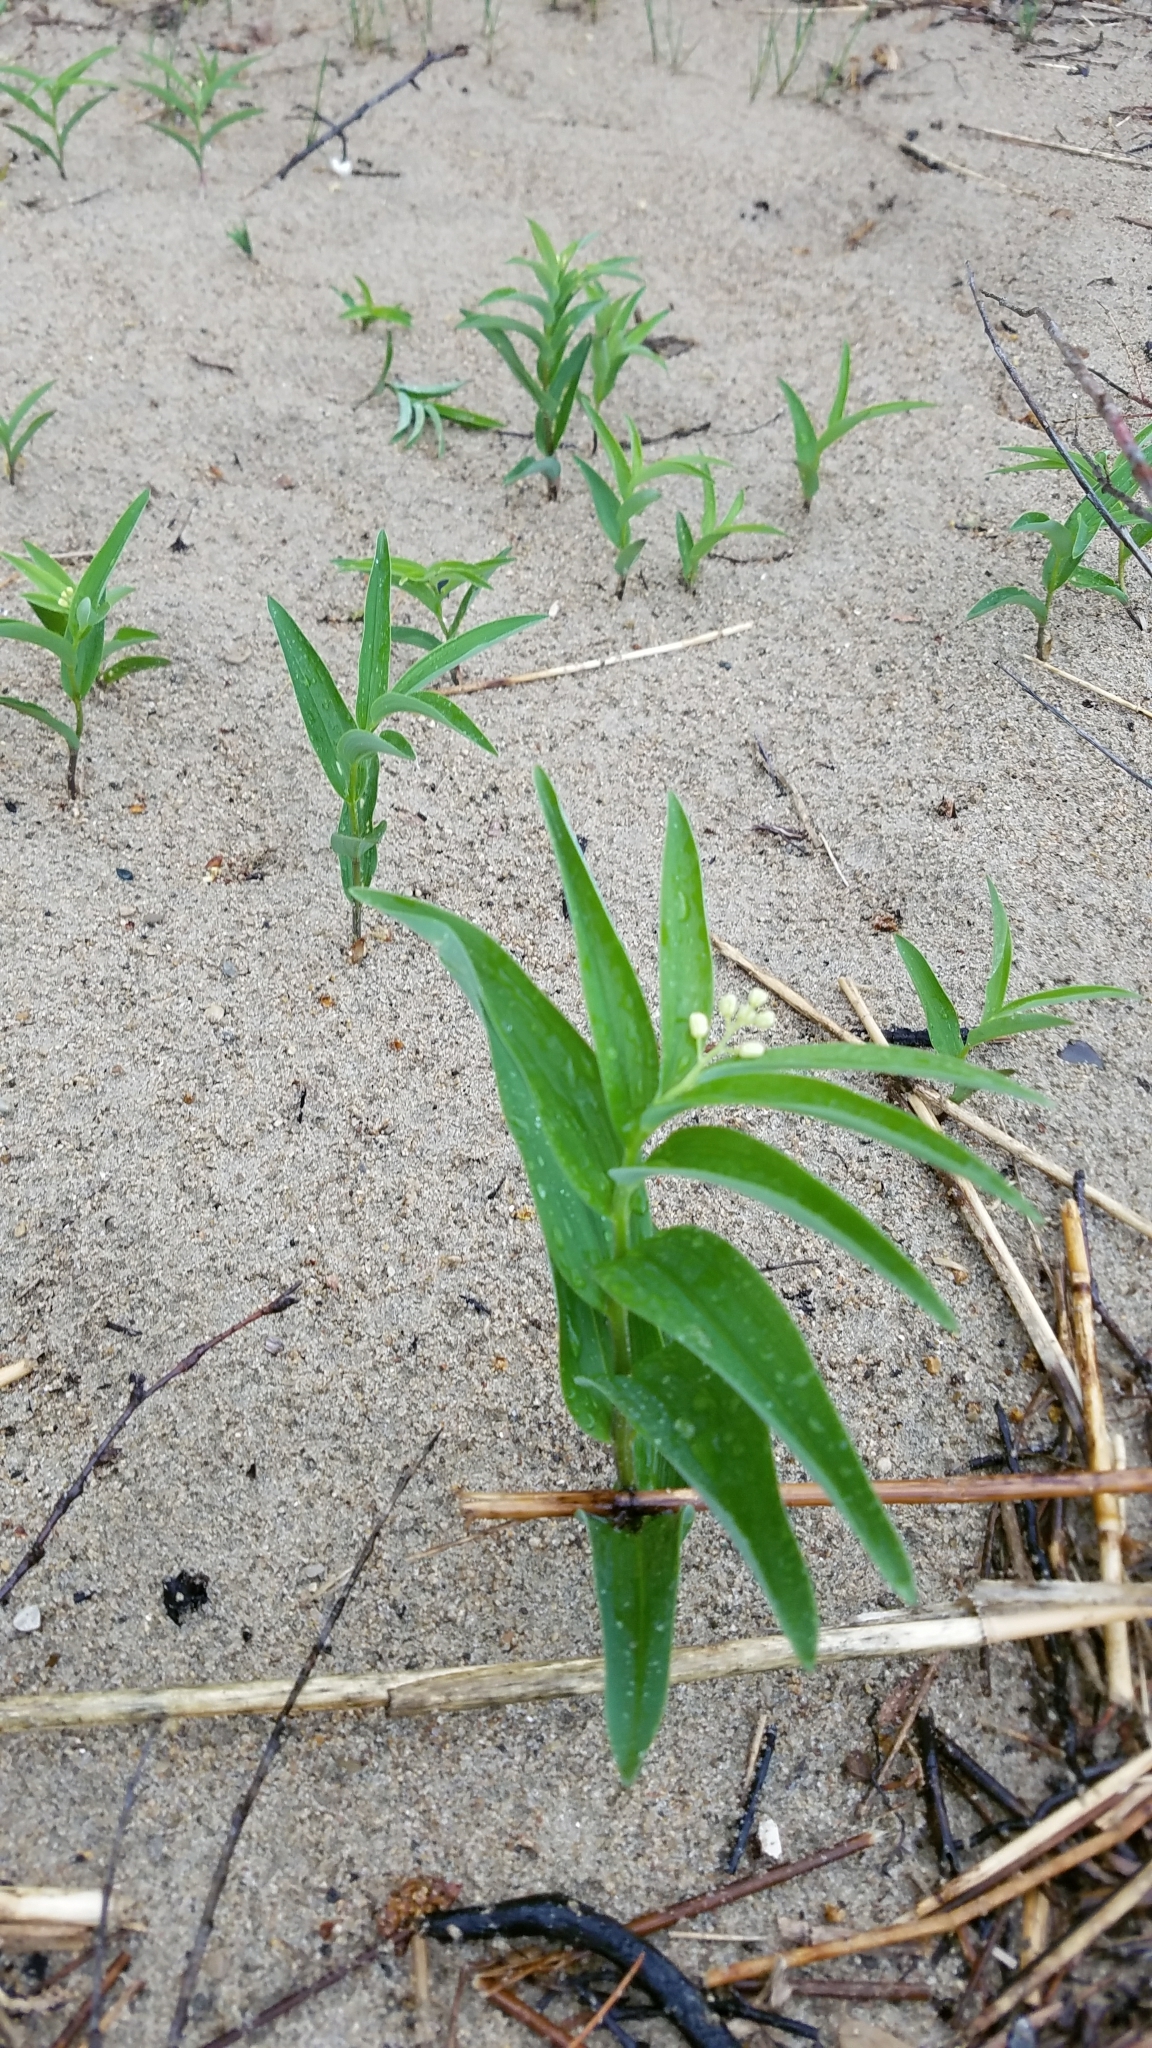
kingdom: Plantae
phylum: Tracheophyta
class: Liliopsida
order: Asparagales
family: Asparagaceae
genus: Maianthemum
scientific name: Maianthemum stellatum
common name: Little false solomon's seal
